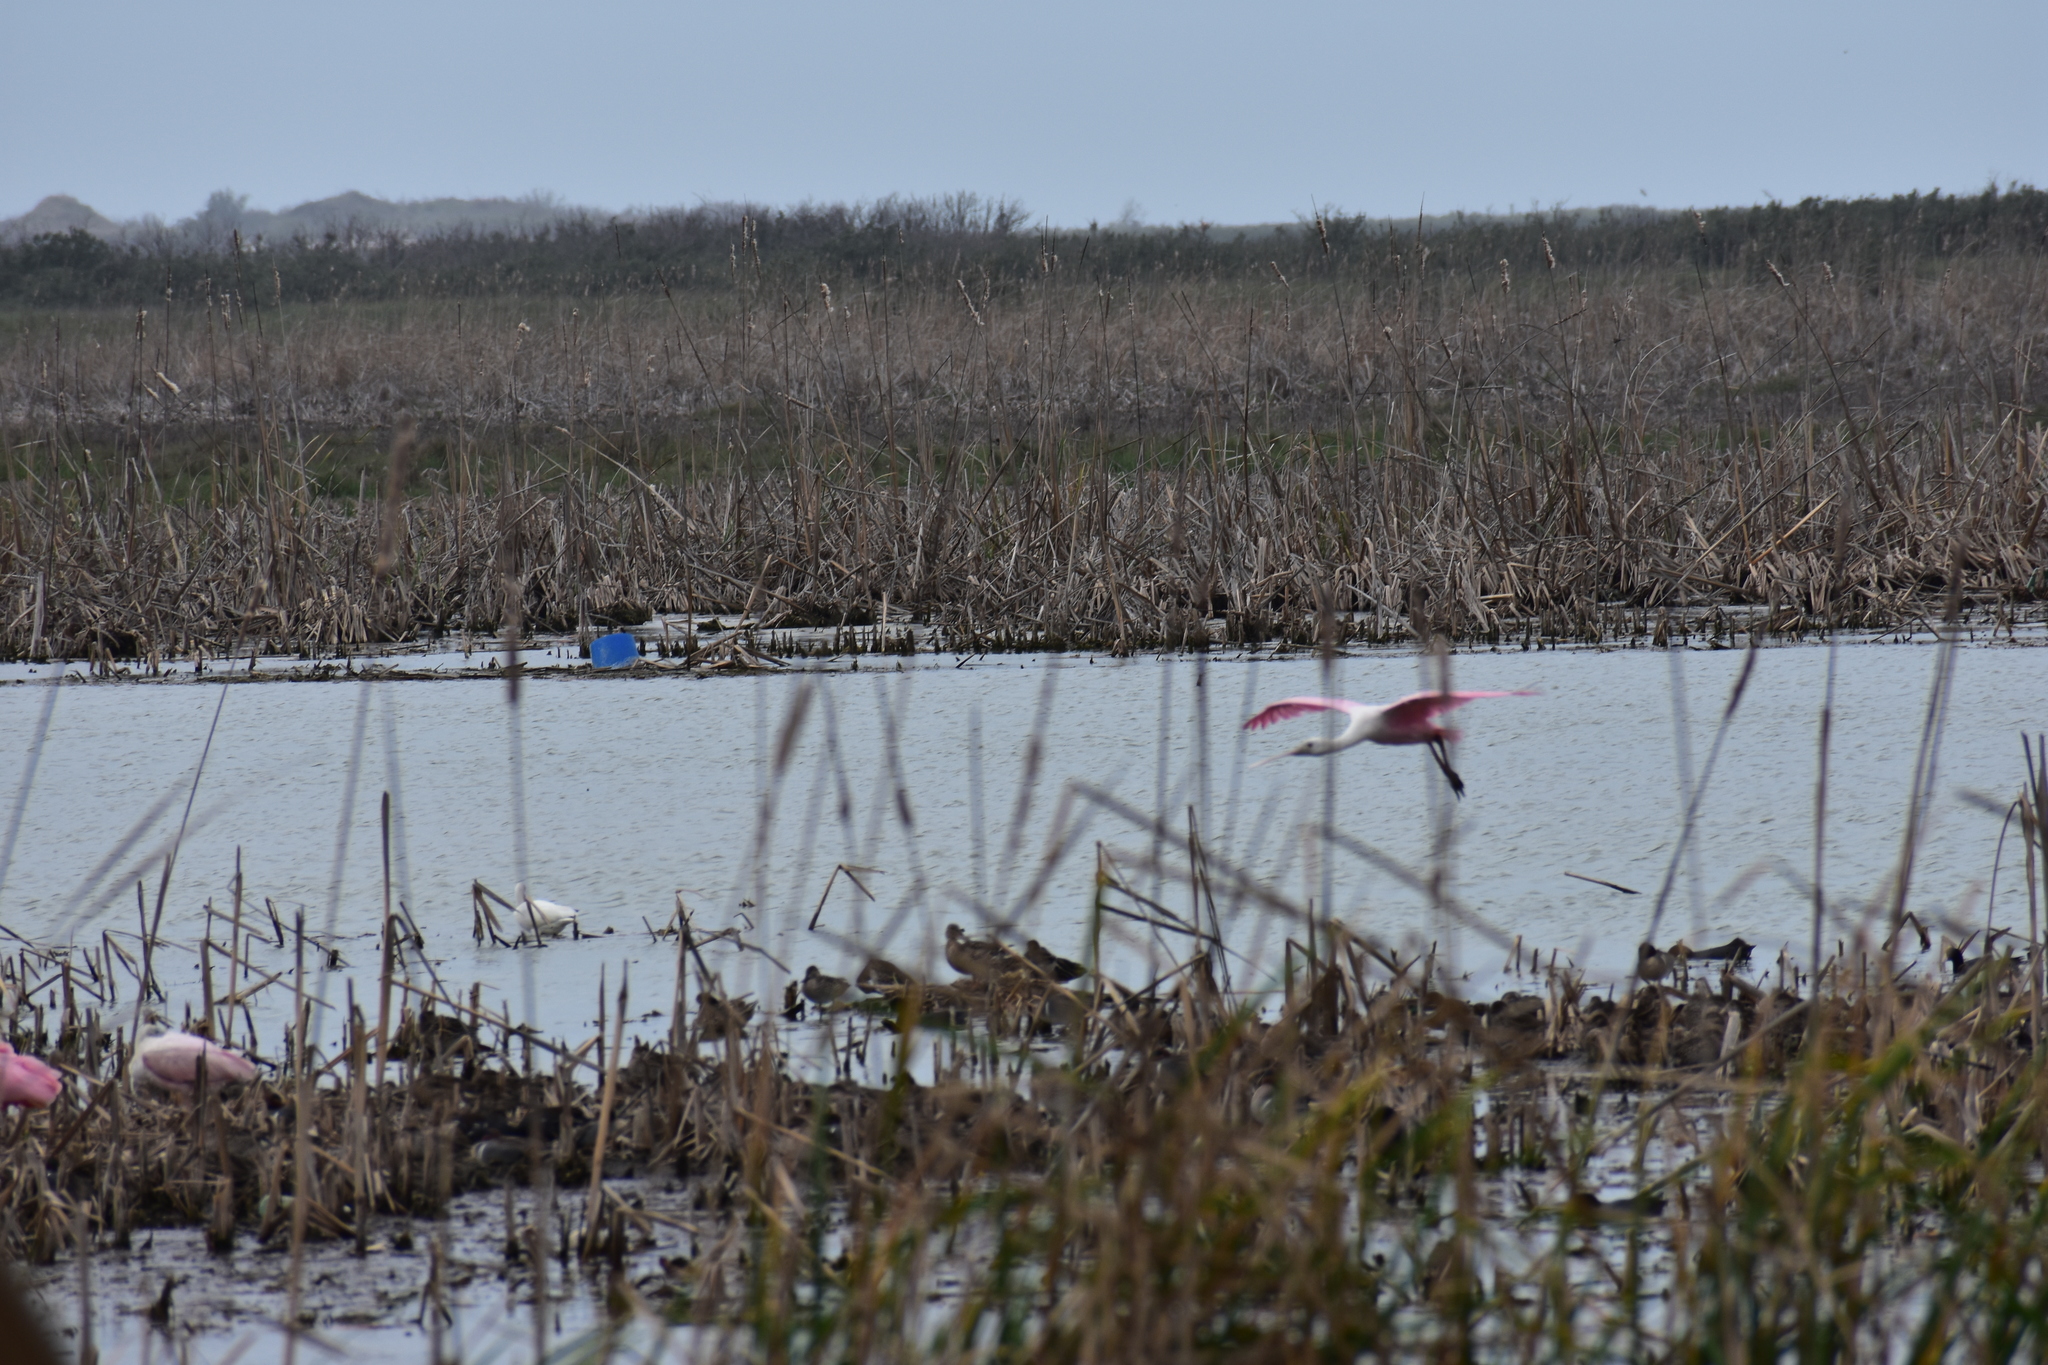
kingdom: Animalia
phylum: Chordata
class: Aves
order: Pelecaniformes
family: Threskiornithidae
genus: Platalea
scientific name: Platalea ajaja
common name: Roseate spoonbill
